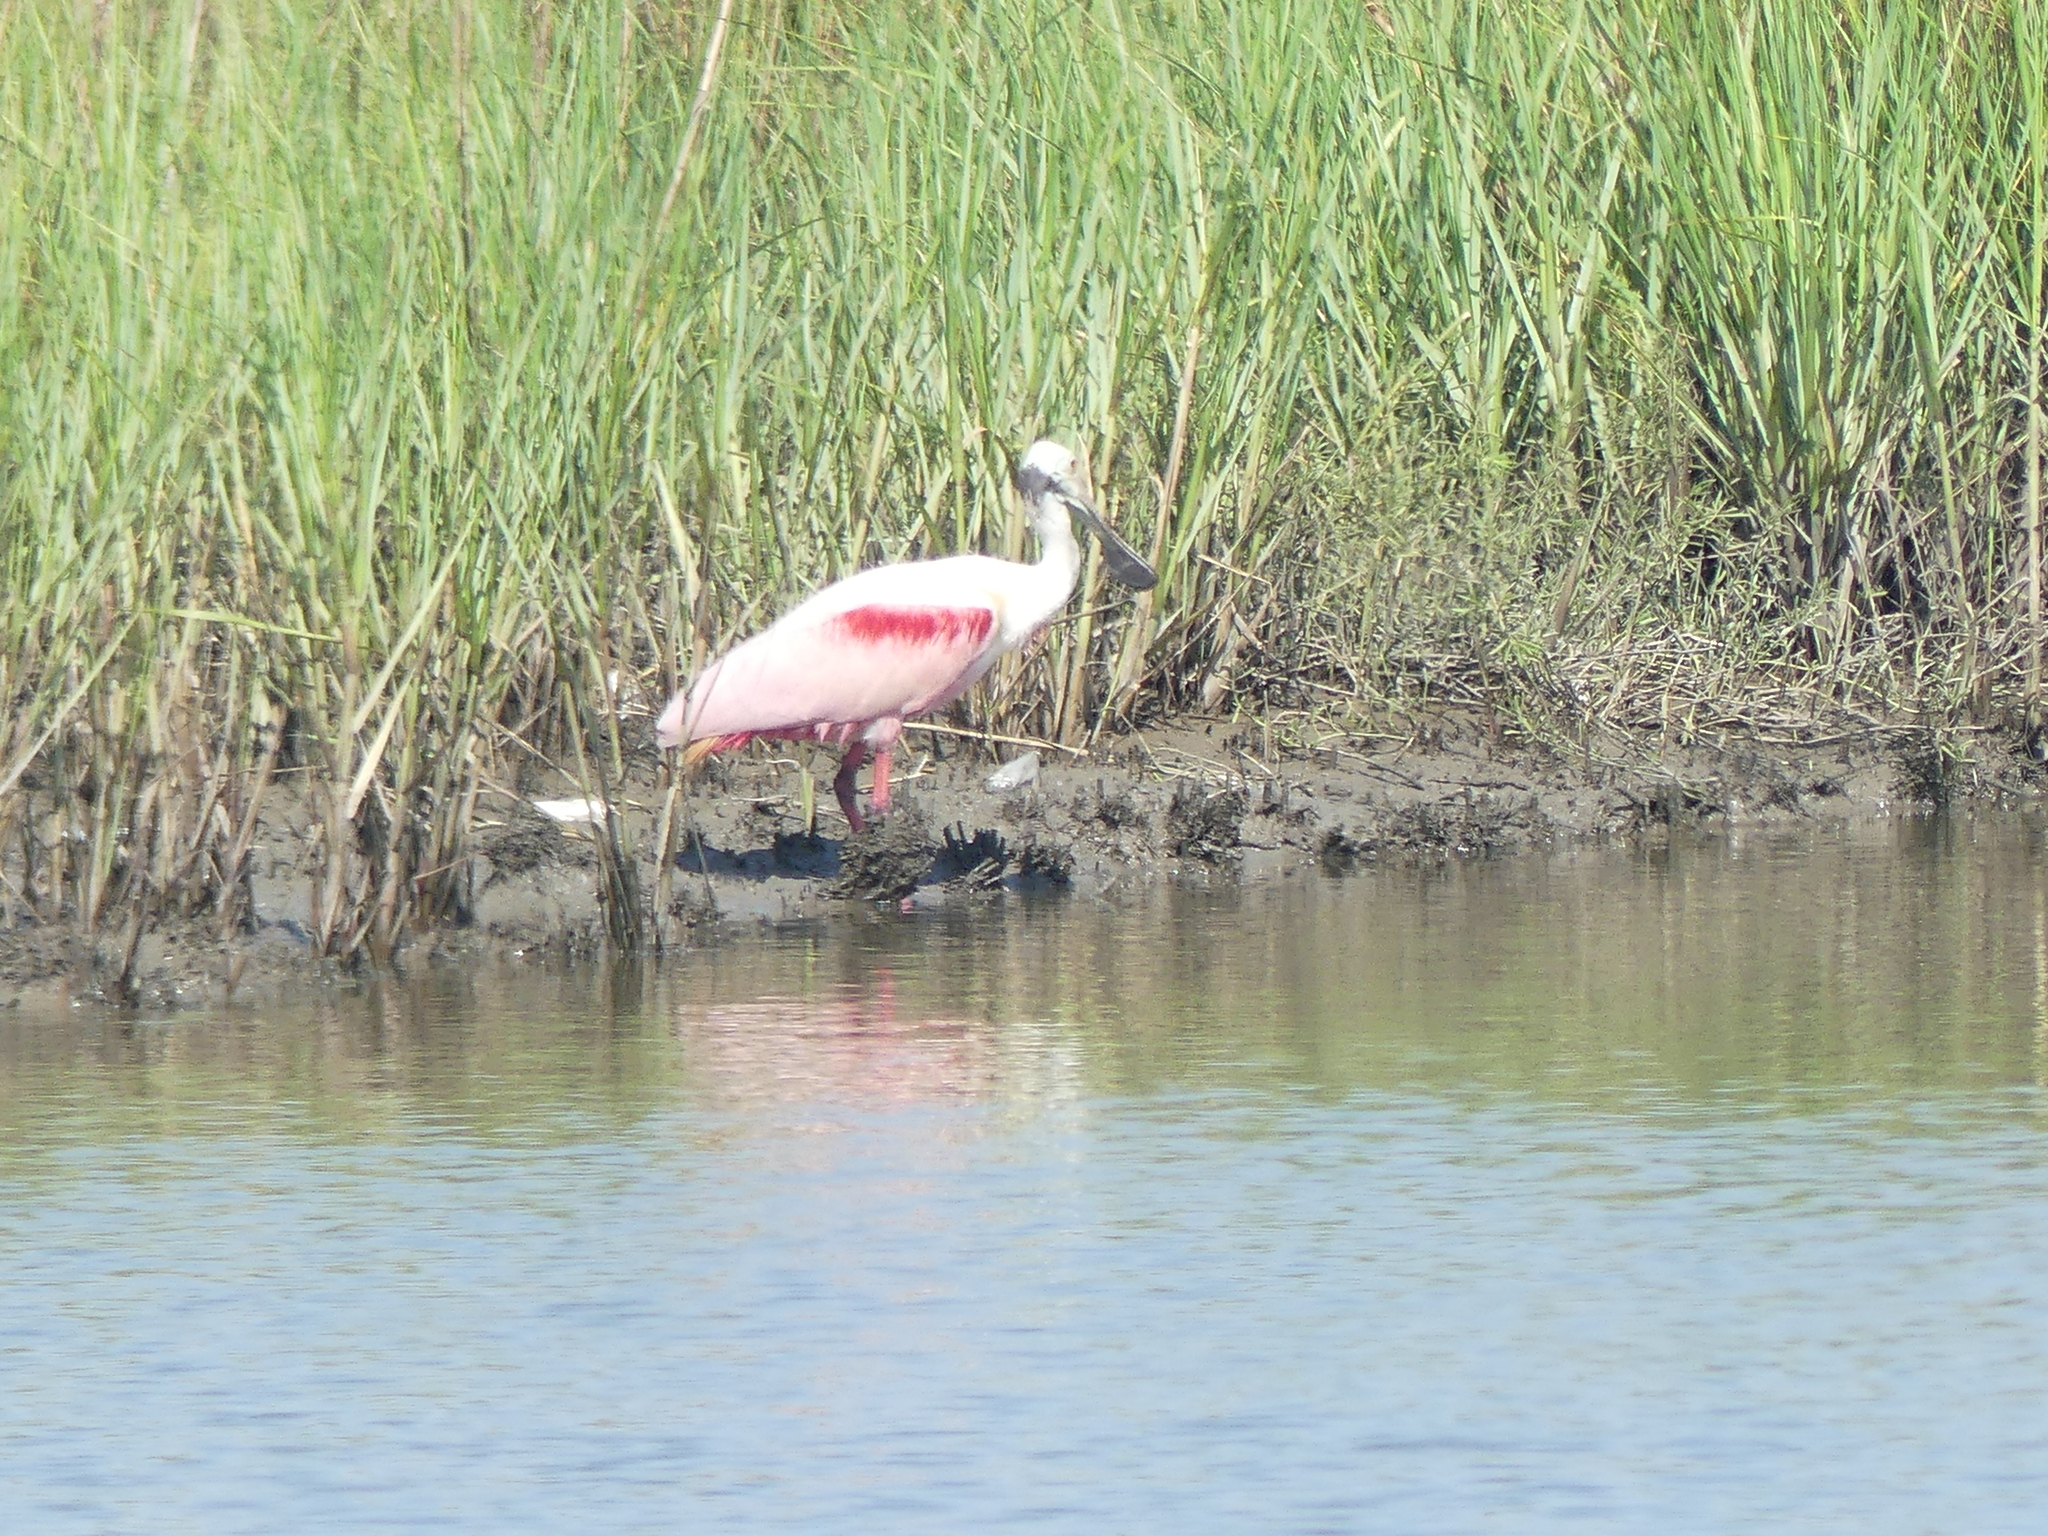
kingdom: Animalia
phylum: Chordata
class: Aves
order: Pelecaniformes
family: Threskiornithidae
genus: Platalea
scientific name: Platalea ajaja
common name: Roseate spoonbill
